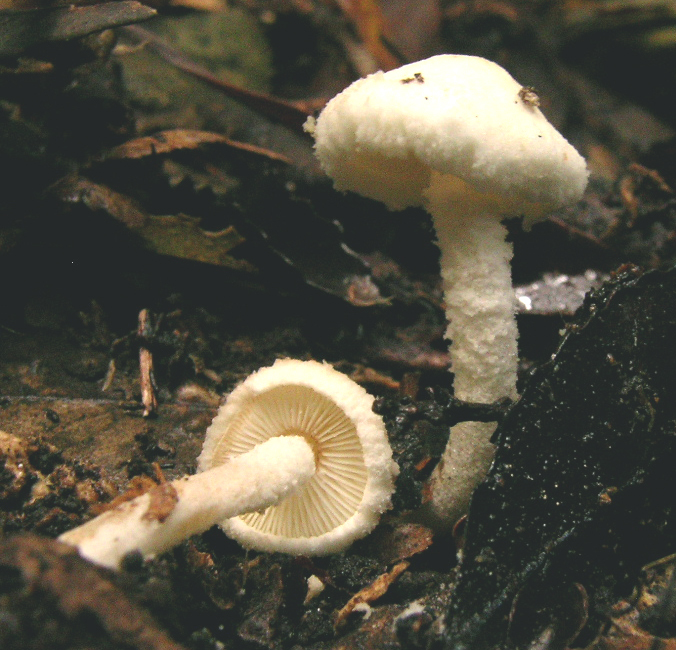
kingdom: Fungi
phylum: Basidiomycota
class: Agaricomycetes
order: Agaricales
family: Agaricaceae
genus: Cystolepiota
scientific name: Cystolepiota hetieri
